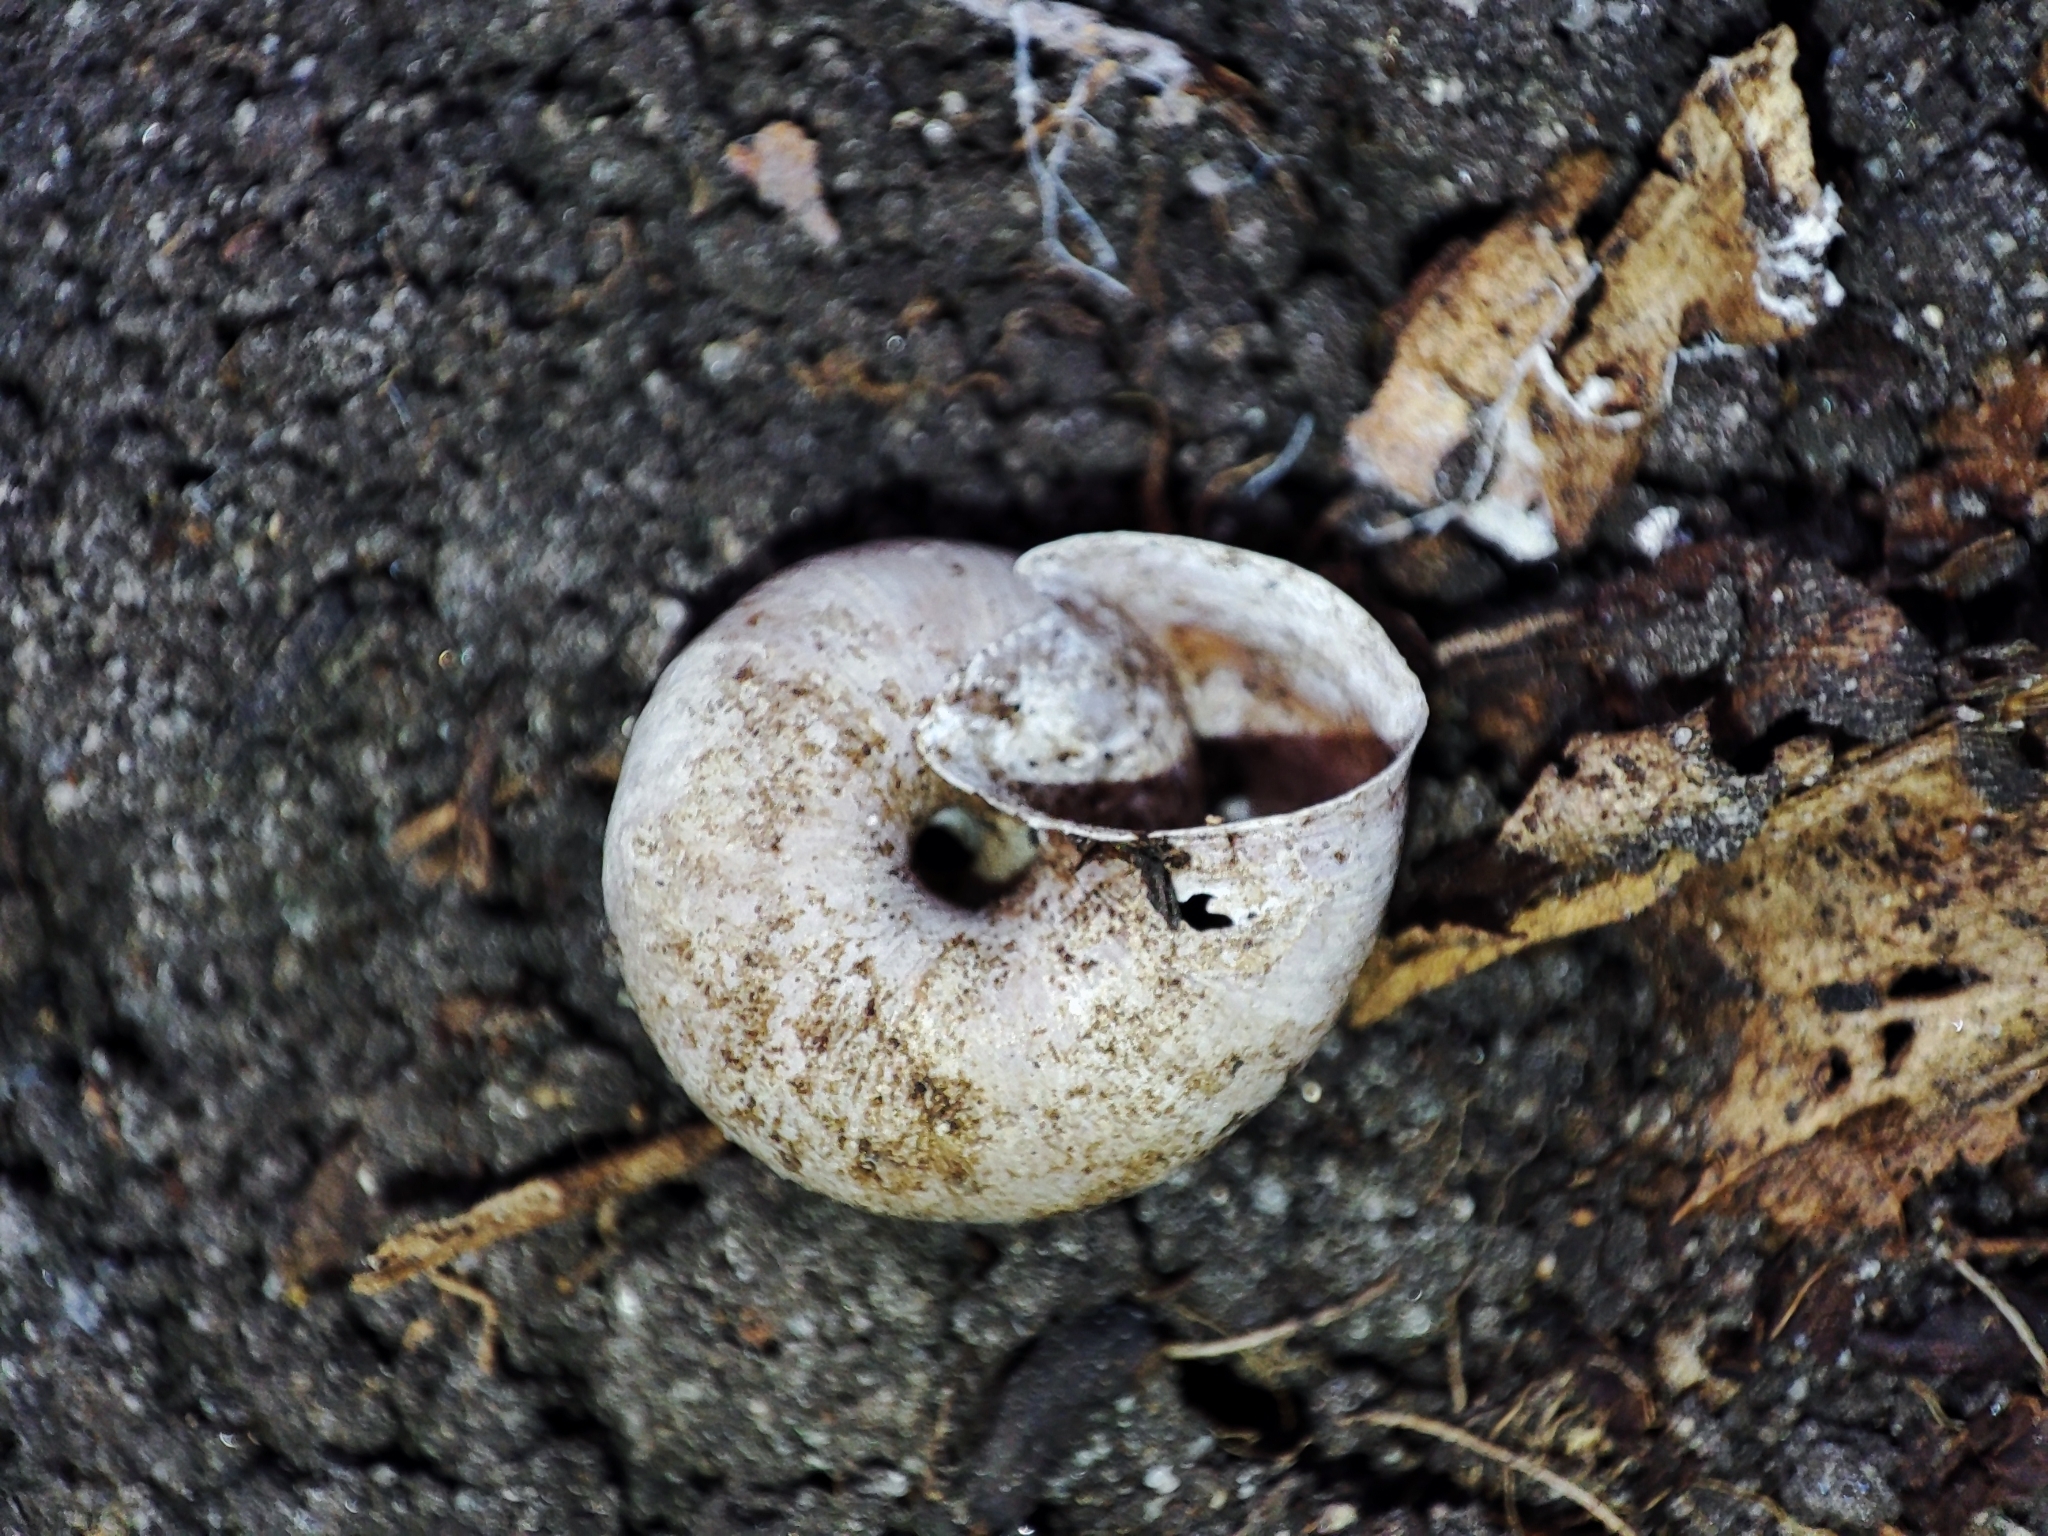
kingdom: Animalia
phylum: Mollusca
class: Gastropoda
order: Stylommatophora
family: Hygromiidae
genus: Euomphalia
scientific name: Euomphalia strigella
